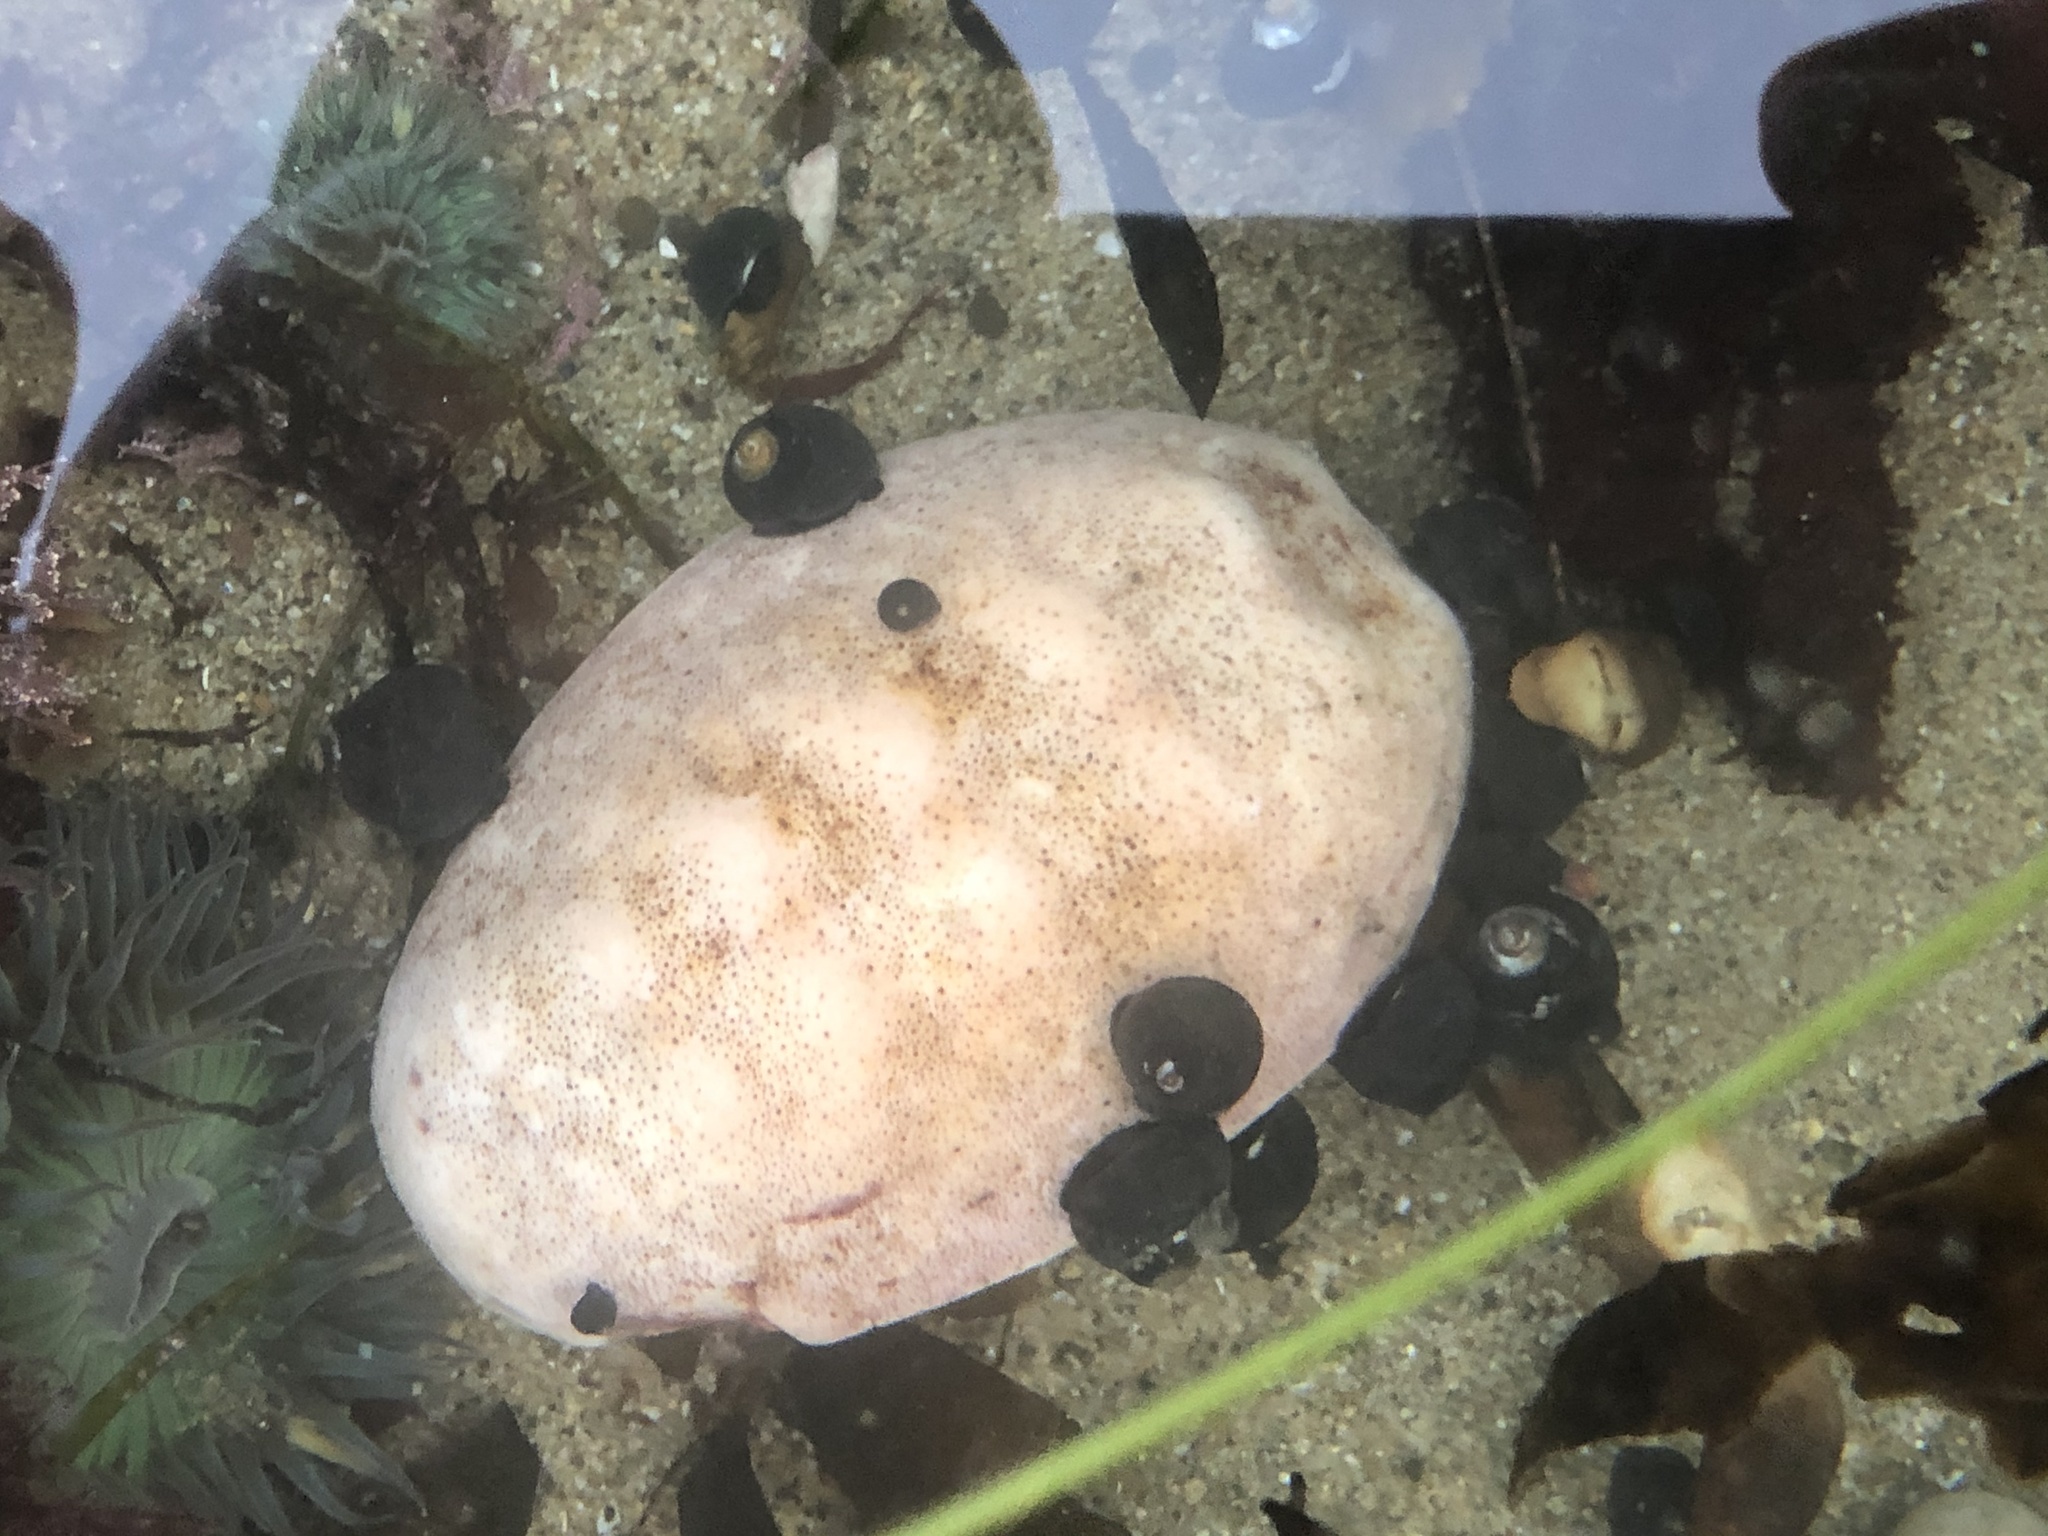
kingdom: Animalia
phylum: Mollusca
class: Polyplacophora
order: Chitonida
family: Acanthochitonidae
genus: Cryptochiton
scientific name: Cryptochiton stelleri
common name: Giant pacific chiton
